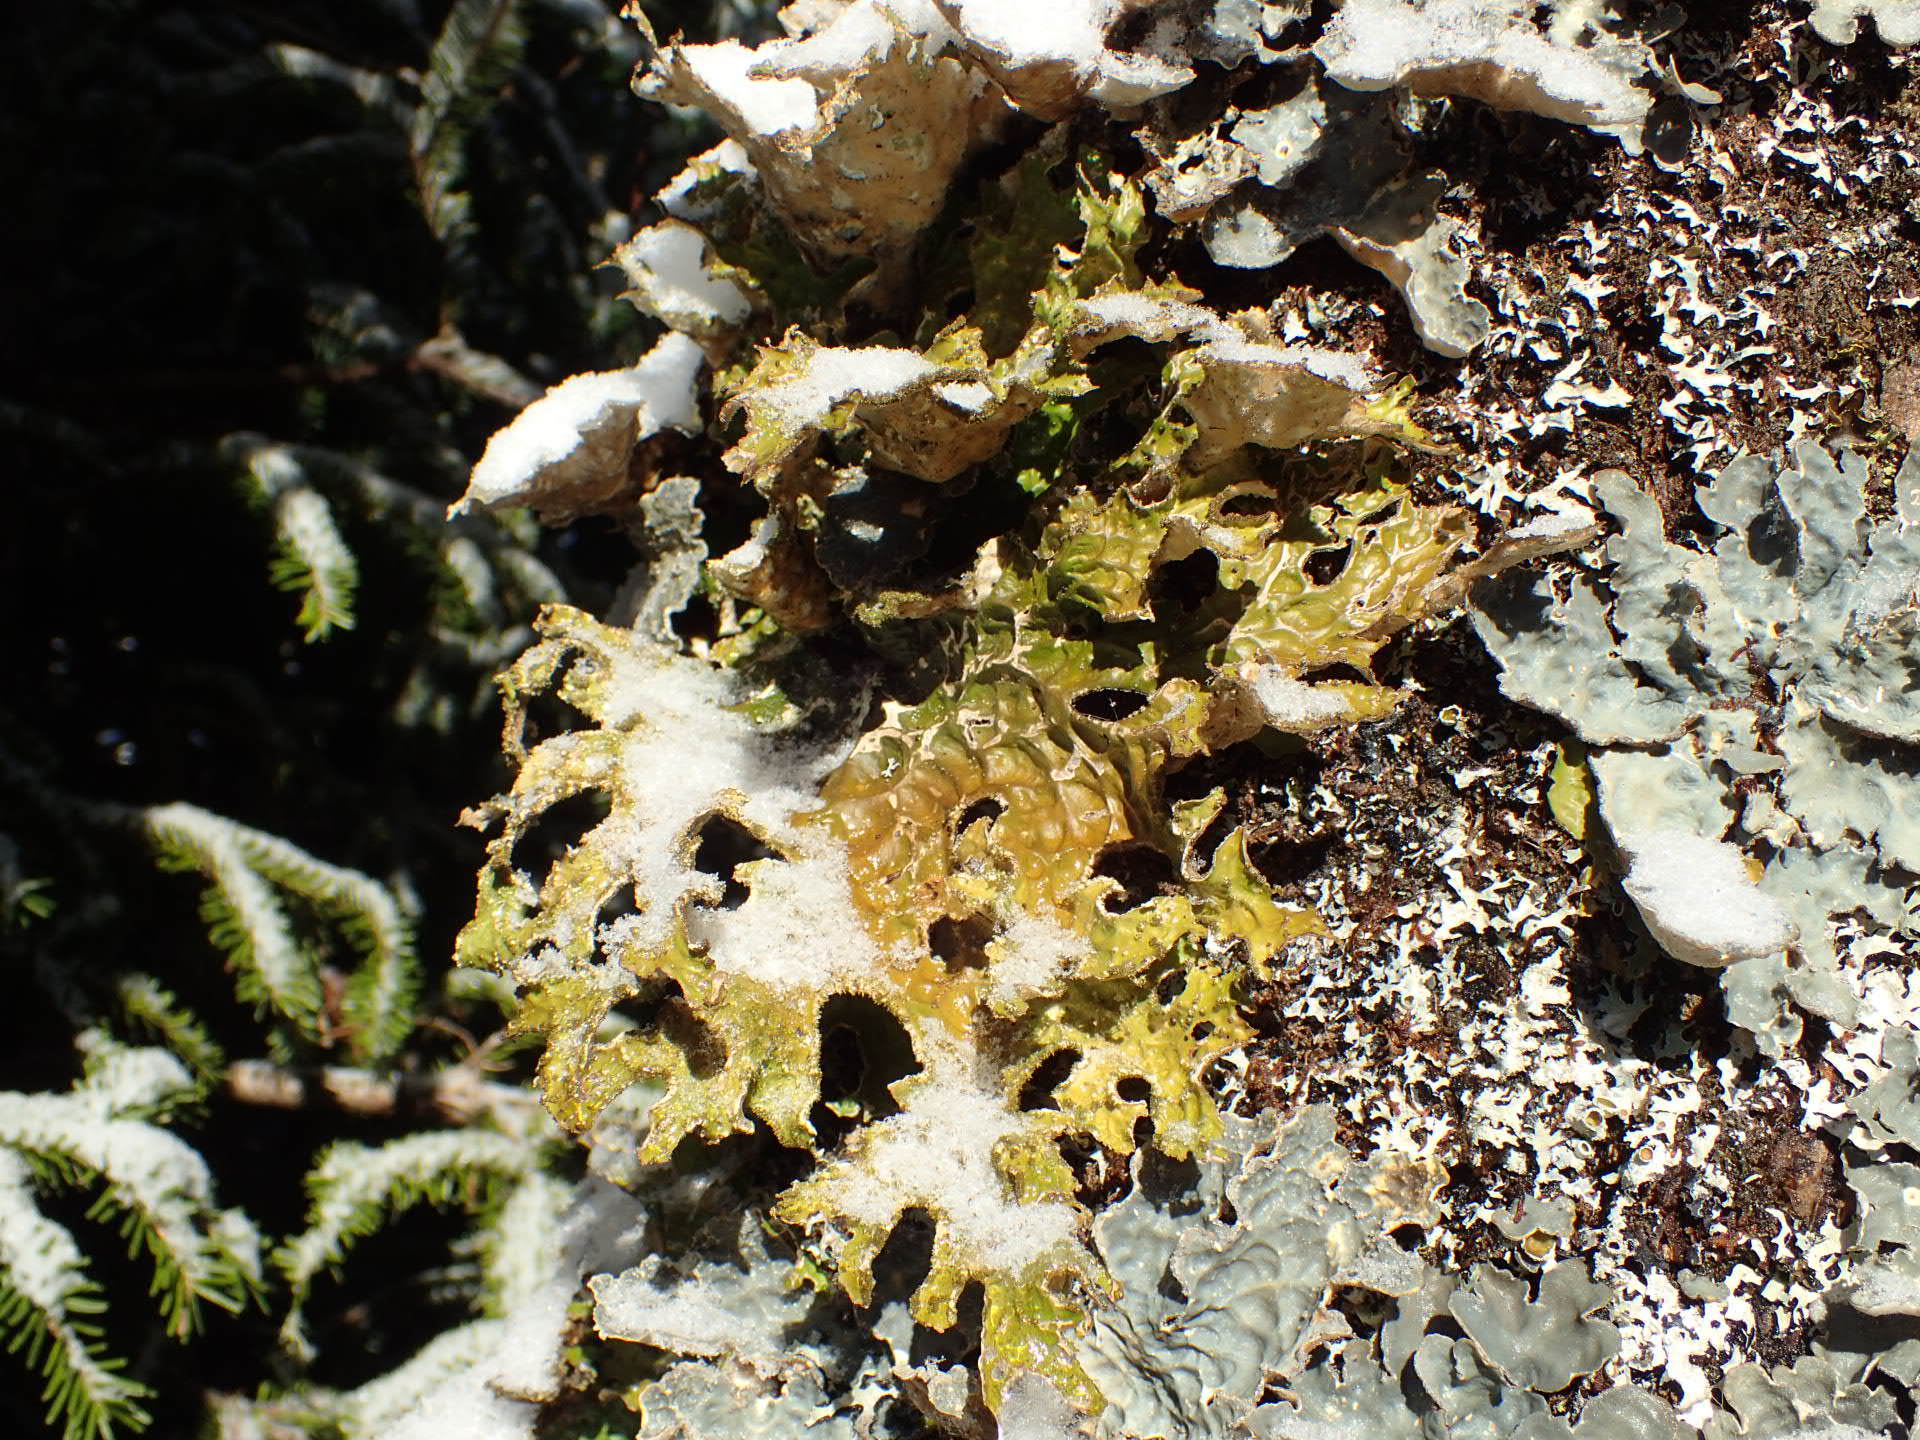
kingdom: Fungi
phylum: Ascomycota
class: Lecanoromycetes
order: Peltigerales
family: Lobariaceae
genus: Lobaria
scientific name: Lobaria pulmonaria
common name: Lungwort
